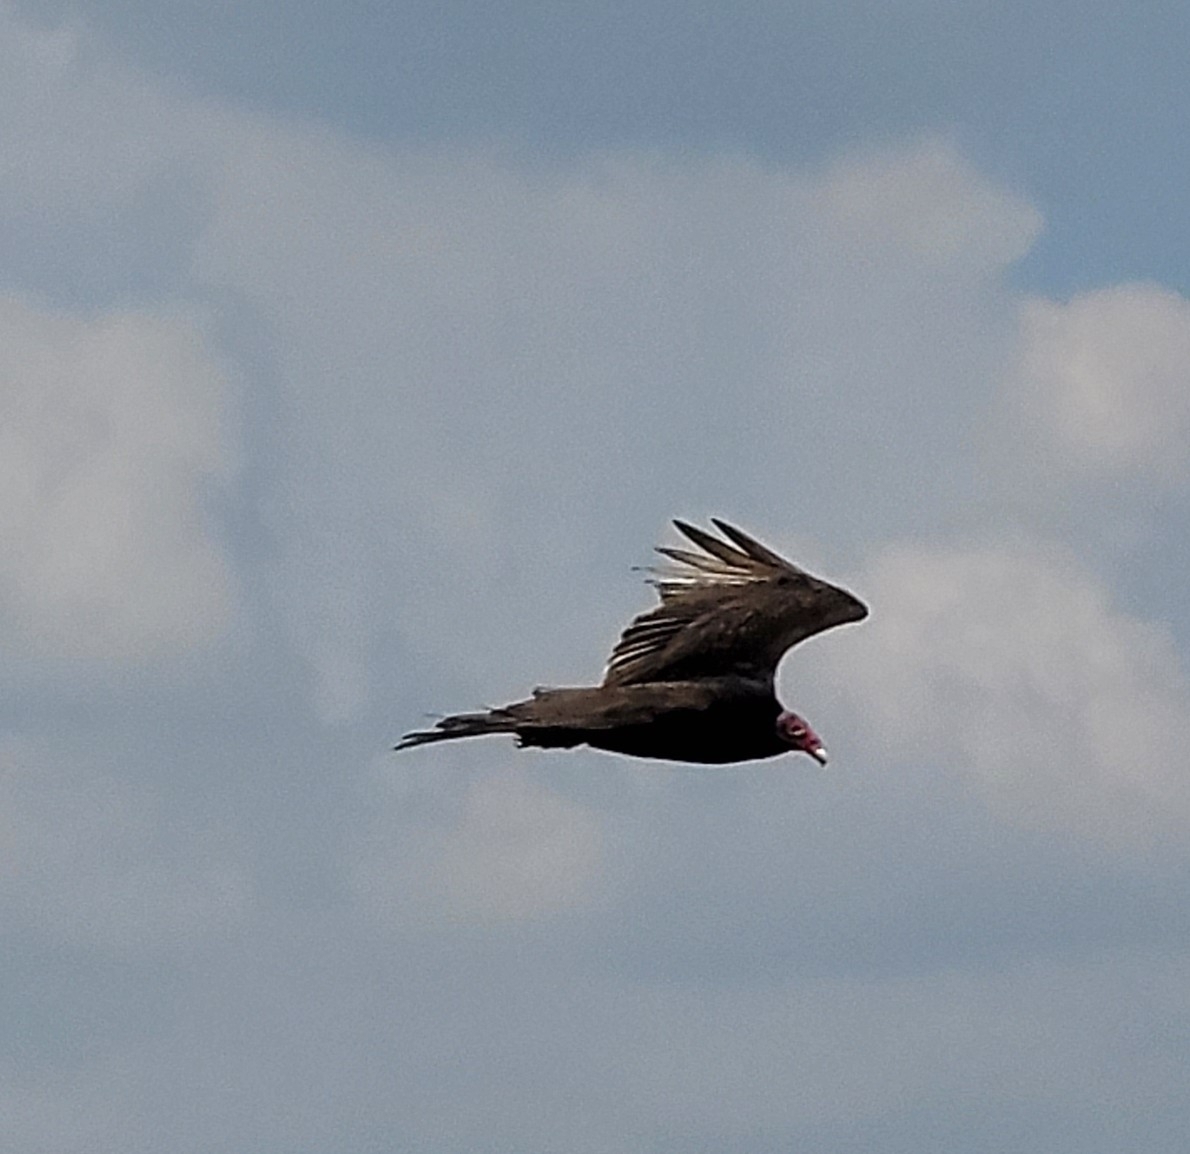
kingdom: Animalia
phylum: Chordata
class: Aves
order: Accipitriformes
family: Cathartidae
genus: Cathartes
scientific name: Cathartes aura
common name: Turkey vulture
